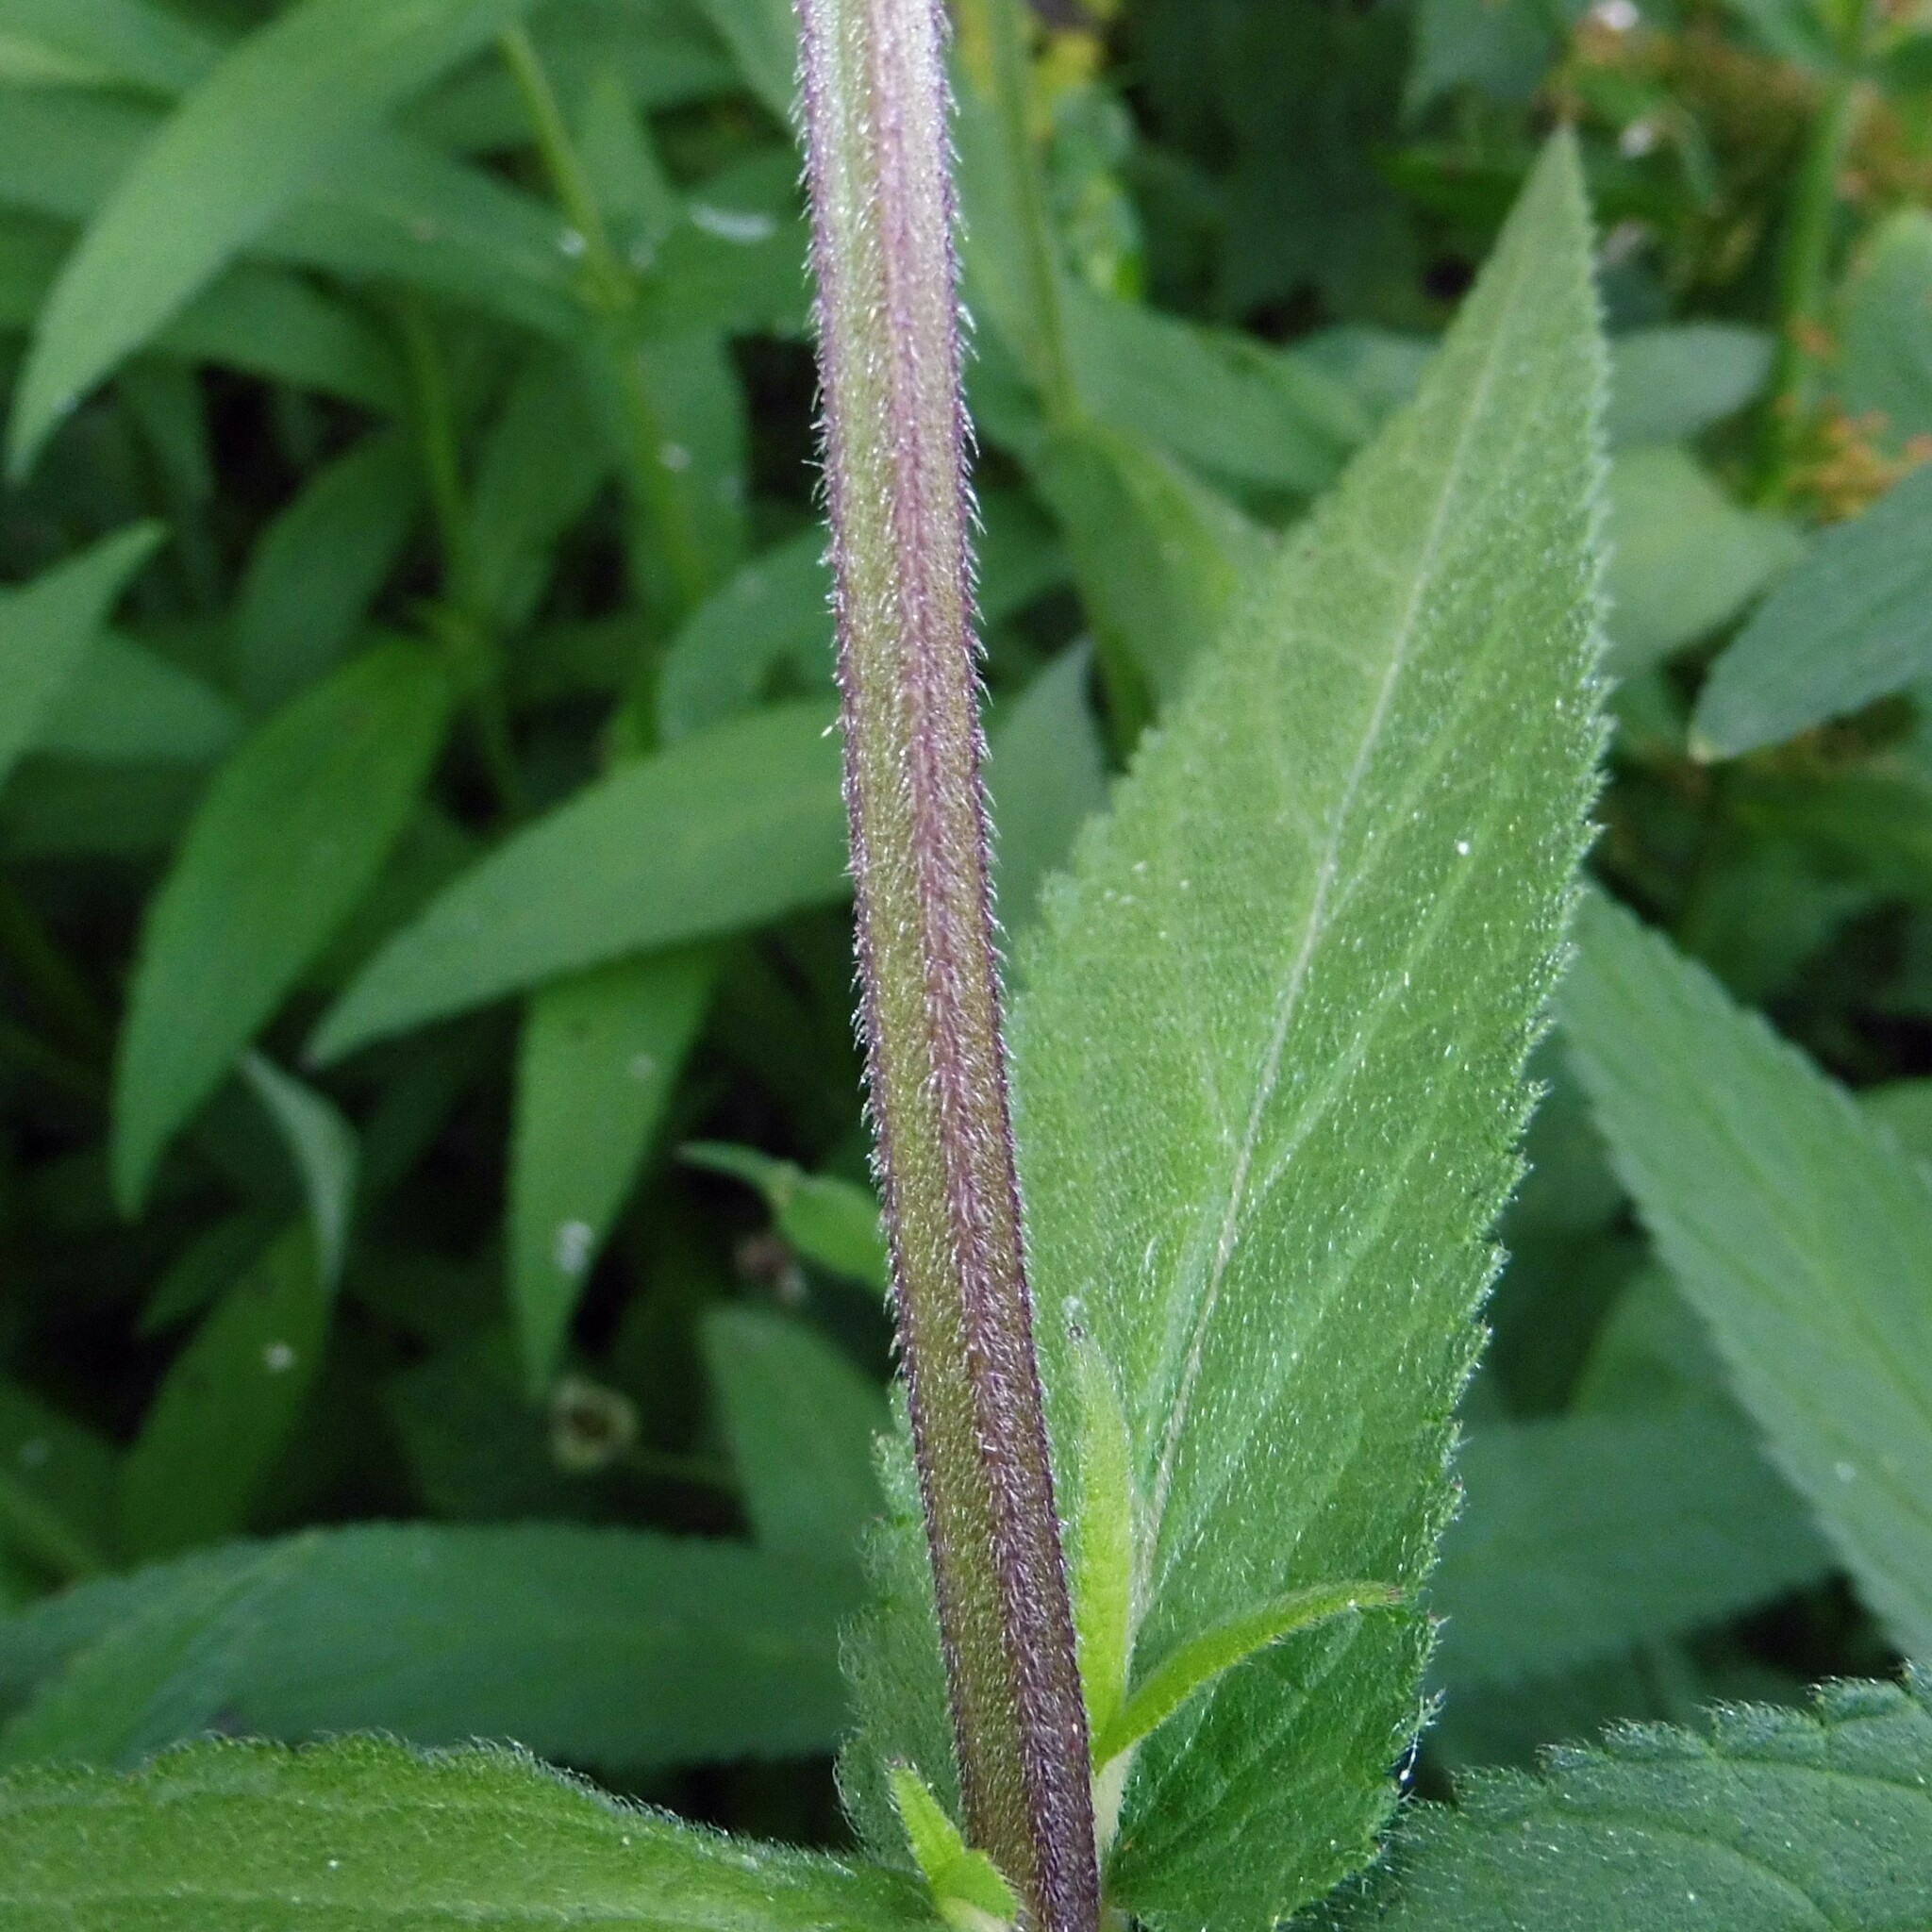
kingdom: Plantae
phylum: Tracheophyta
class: Magnoliopsida
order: Lamiales
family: Lamiaceae
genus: Stachys
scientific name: Stachys palustris
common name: Marsh woundwort
